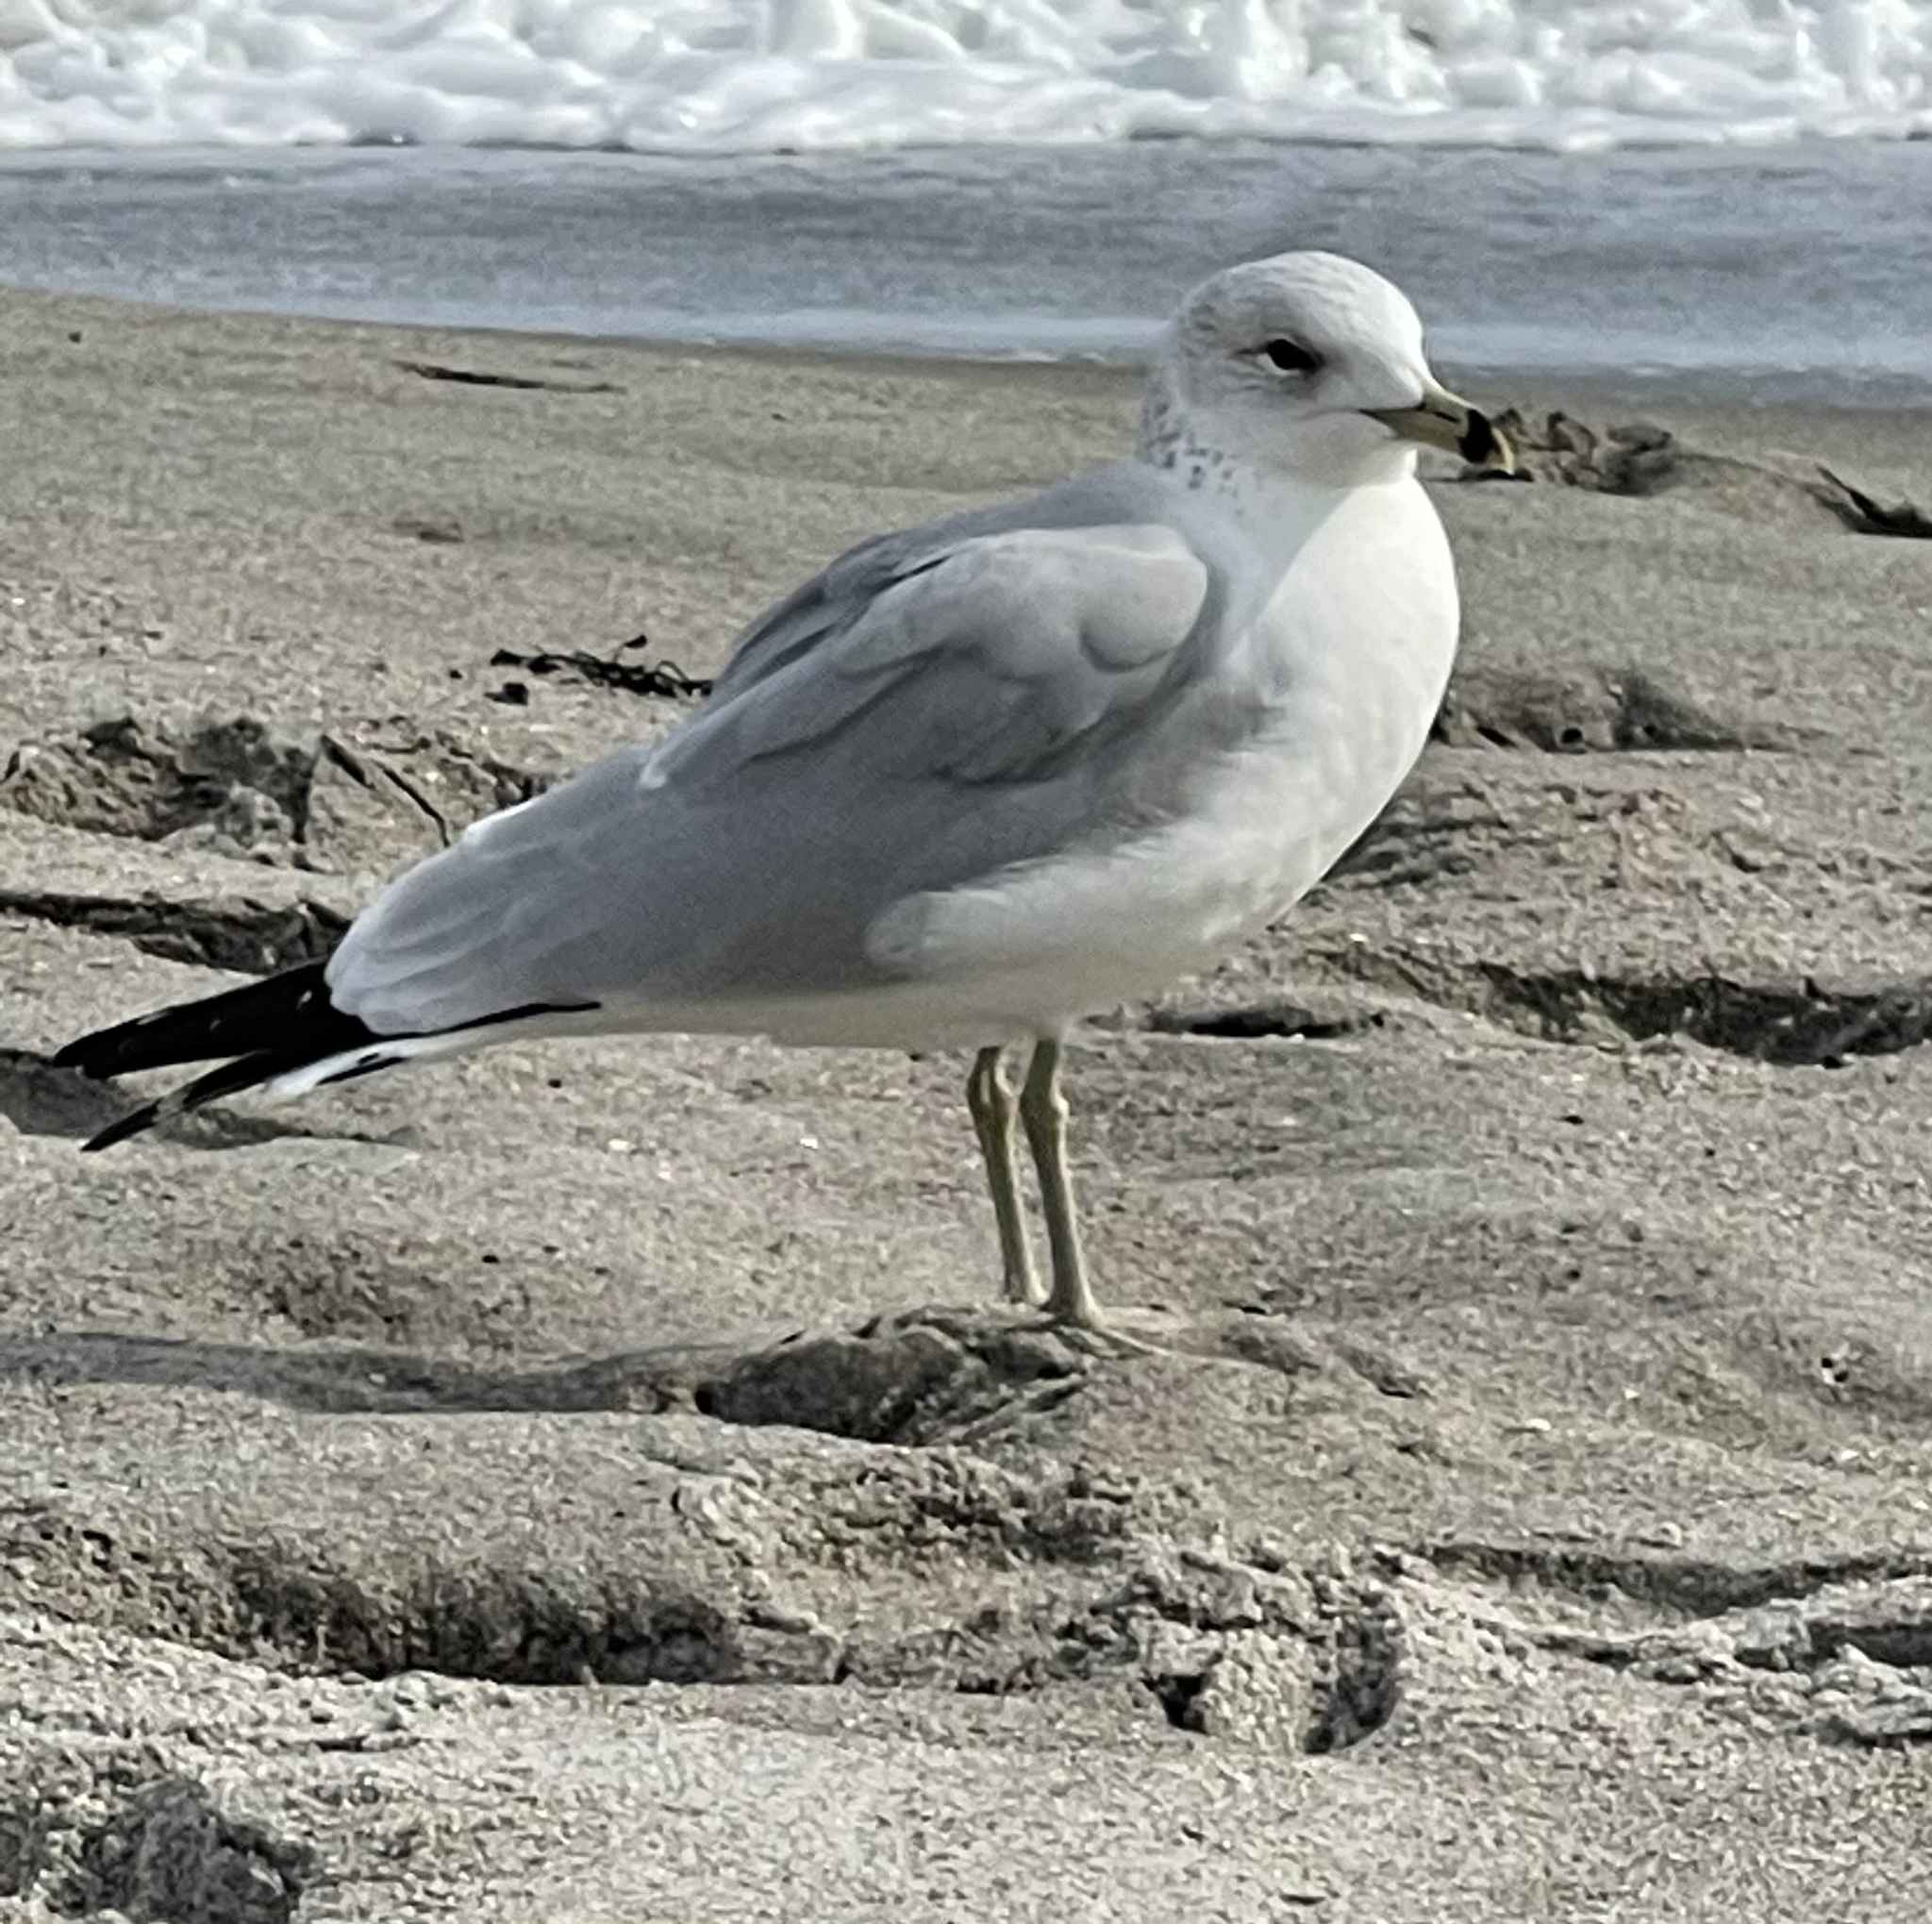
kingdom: Animalia
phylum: Chordata
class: Aves
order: Charadriiformes
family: Laridae
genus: Larus
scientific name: Larus delawarensis
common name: Ring-billed gull
